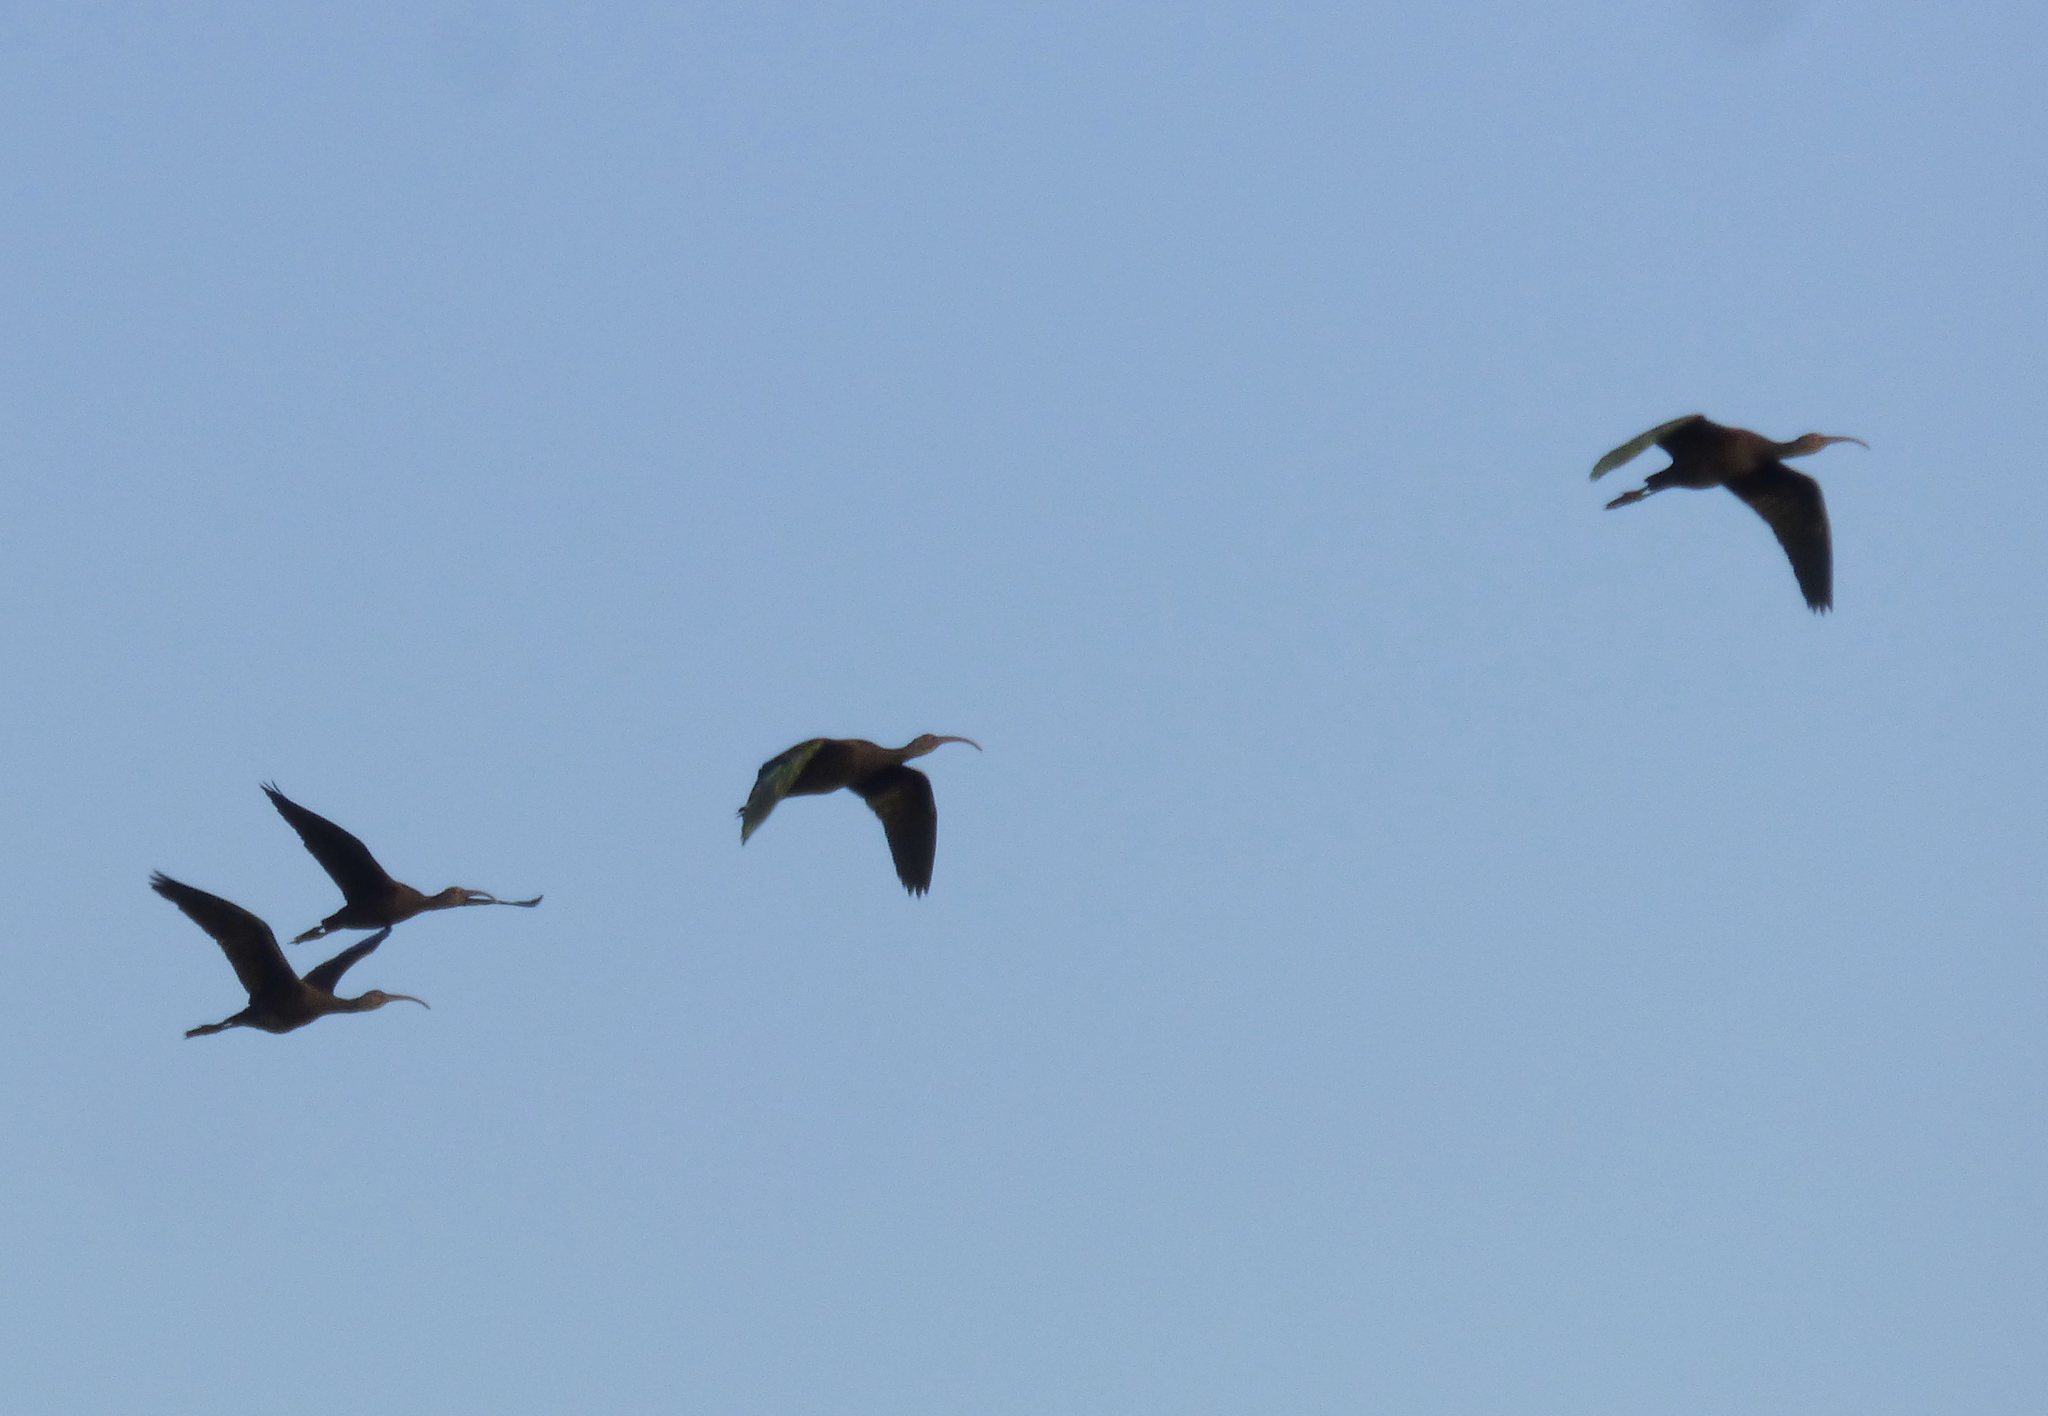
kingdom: Animalia
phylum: Chordata
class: Aves
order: Pelecaniformes
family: Threskiornithidae
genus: Plegadis
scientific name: Plegadis chihi
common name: White-faced ibis
